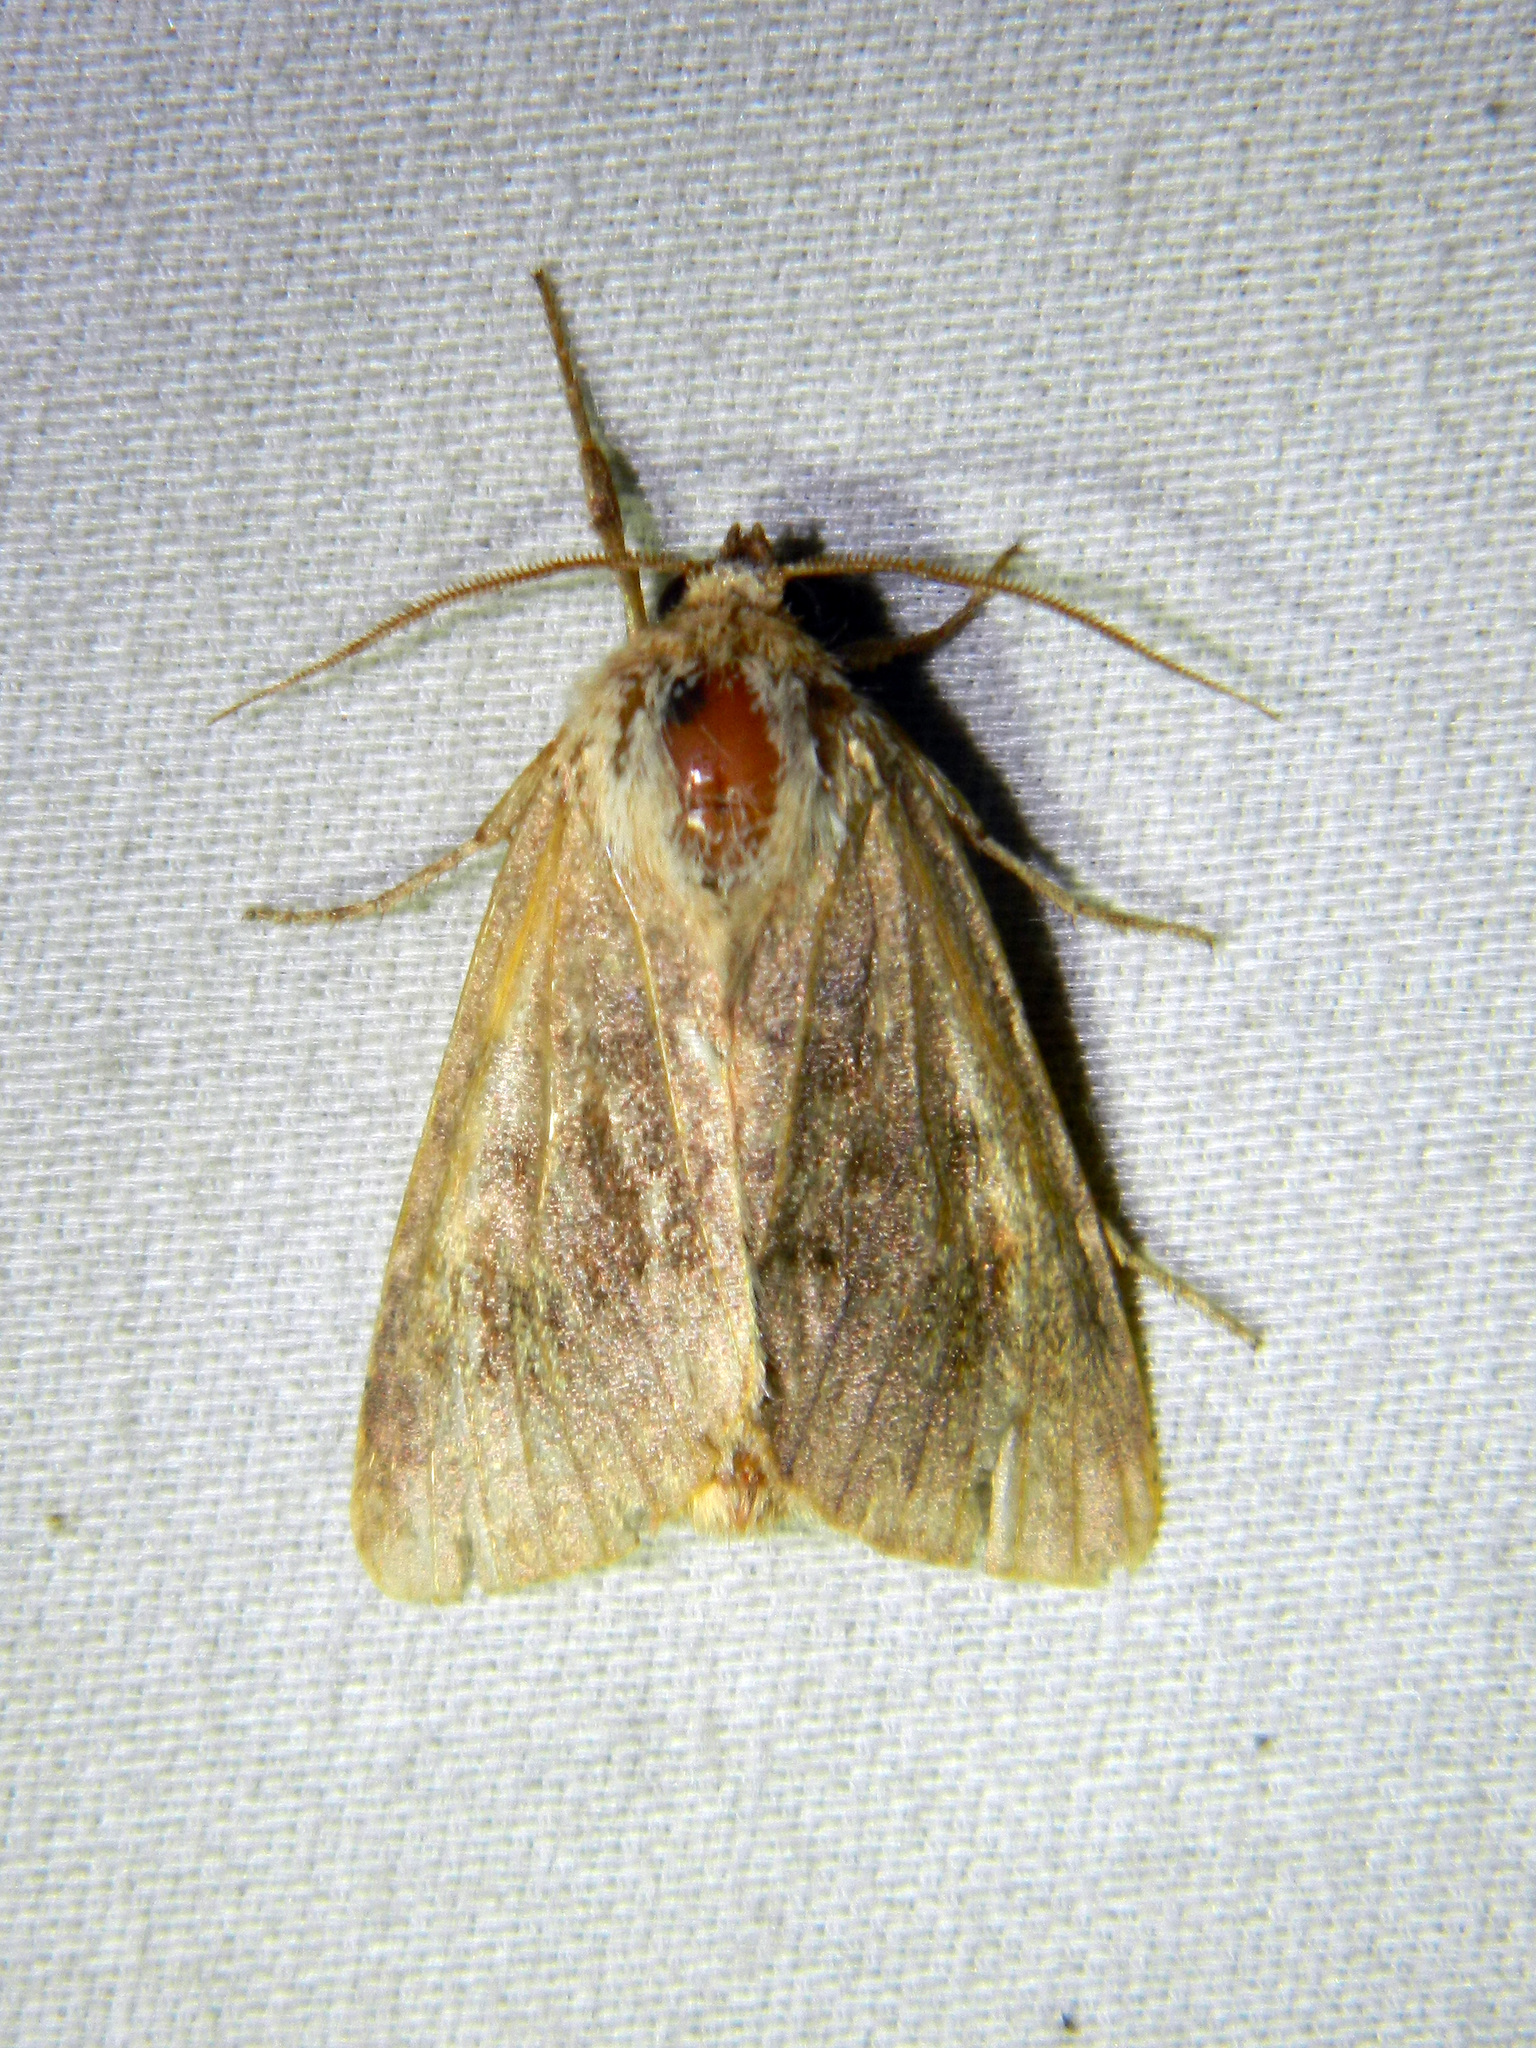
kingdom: Animalia
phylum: Arthropoda
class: Insecta
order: Lepidoptera
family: Noctuidae
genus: Nephelodes
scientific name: Nephelodes minians
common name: Bronzed cutworm
